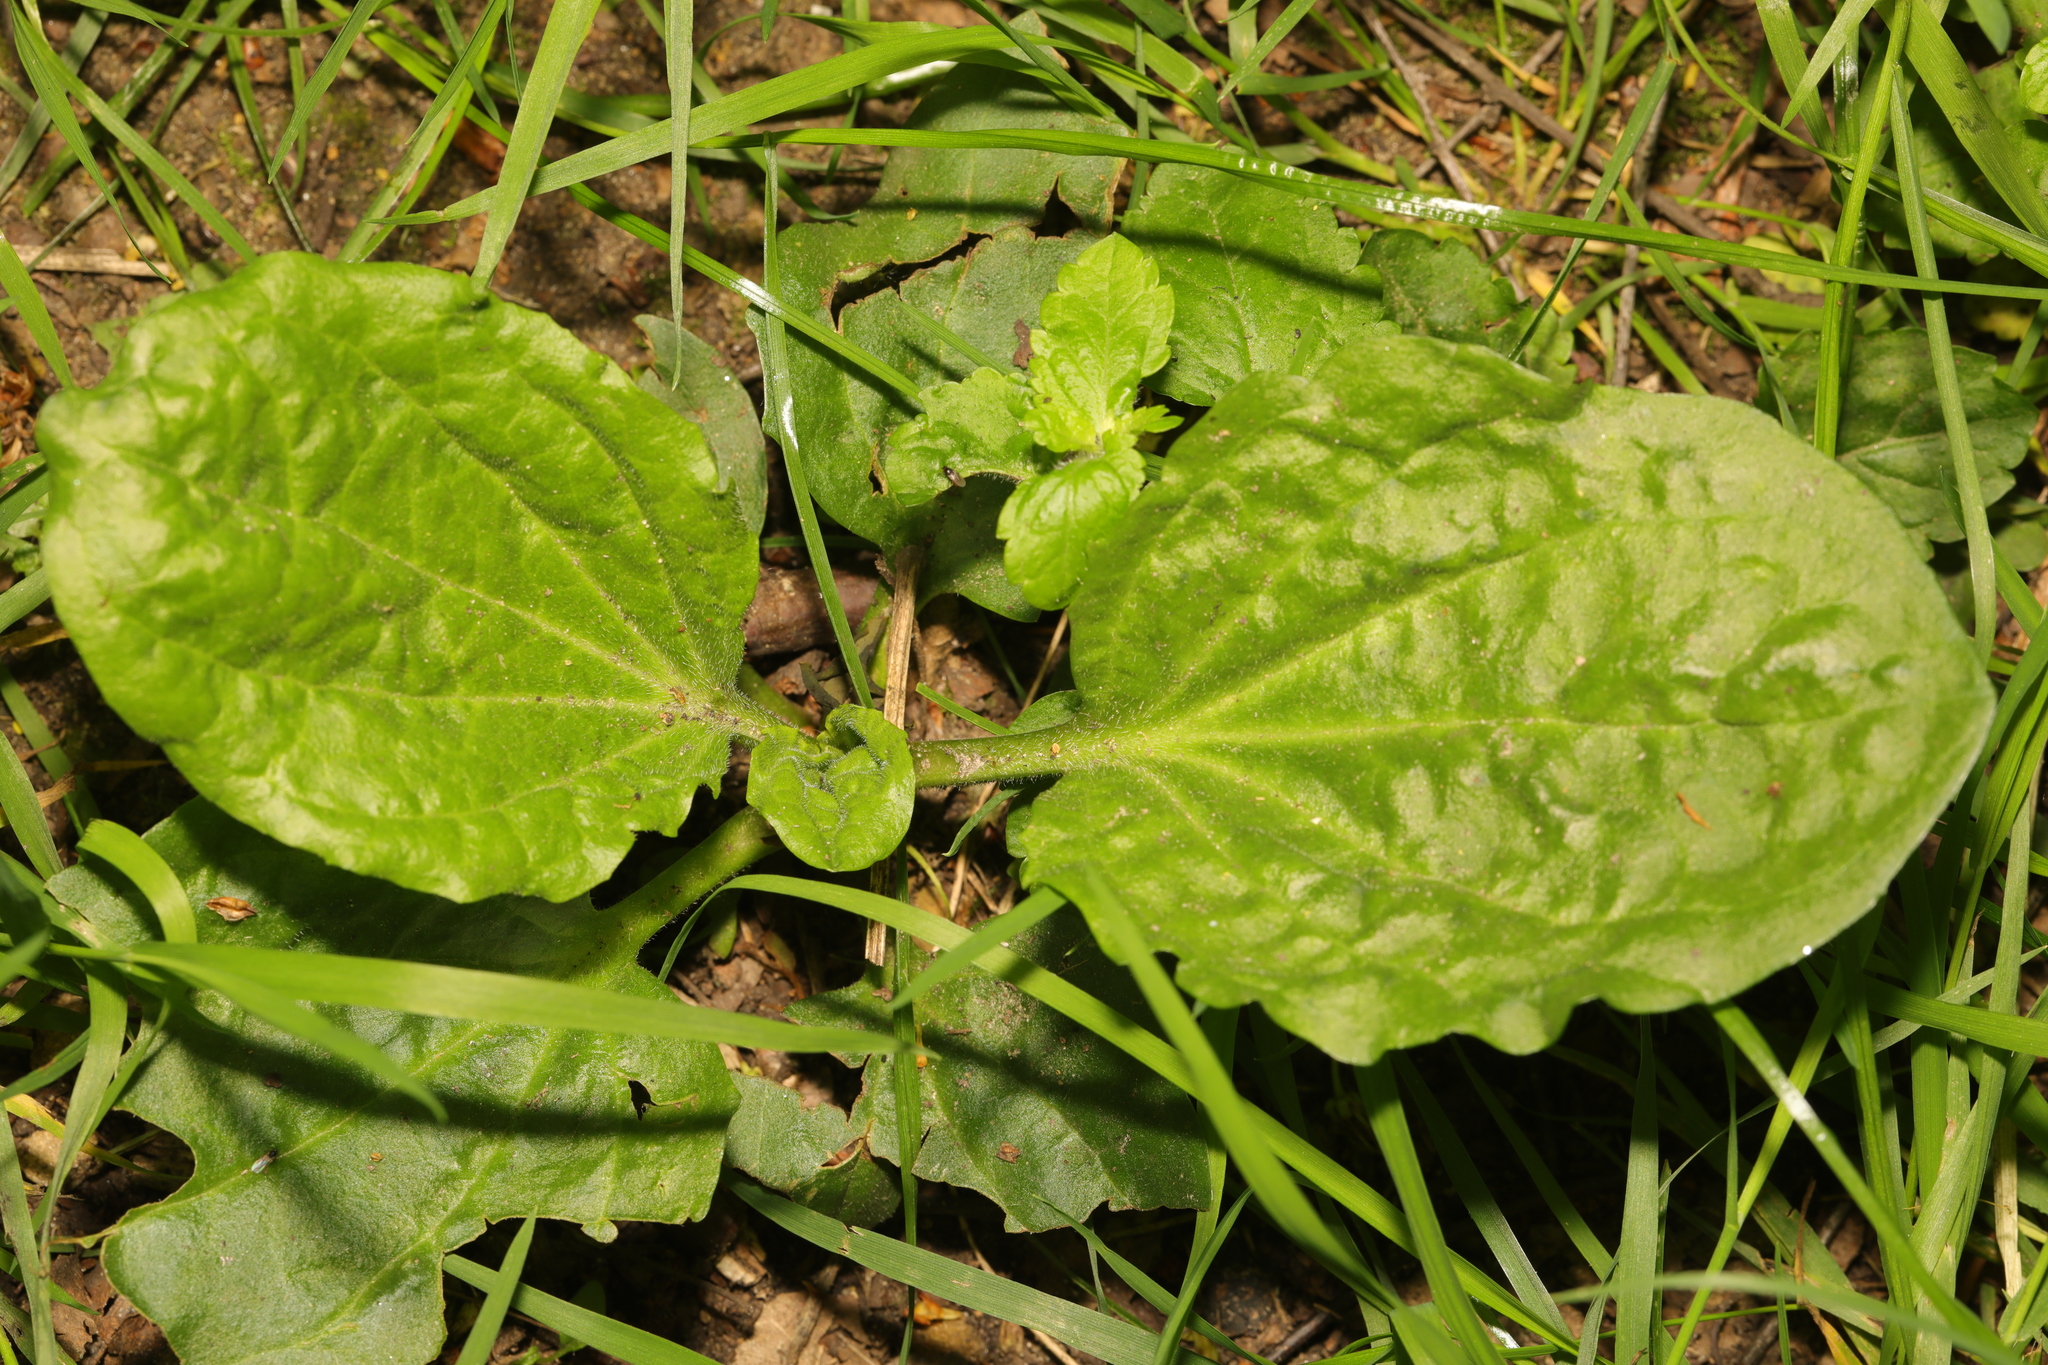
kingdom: Plantae
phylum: Tracheophyta
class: Magnoliopsida
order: Lamiales
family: Plantaginaceae
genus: Plantago
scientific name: Plantago major
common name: Common plantain
